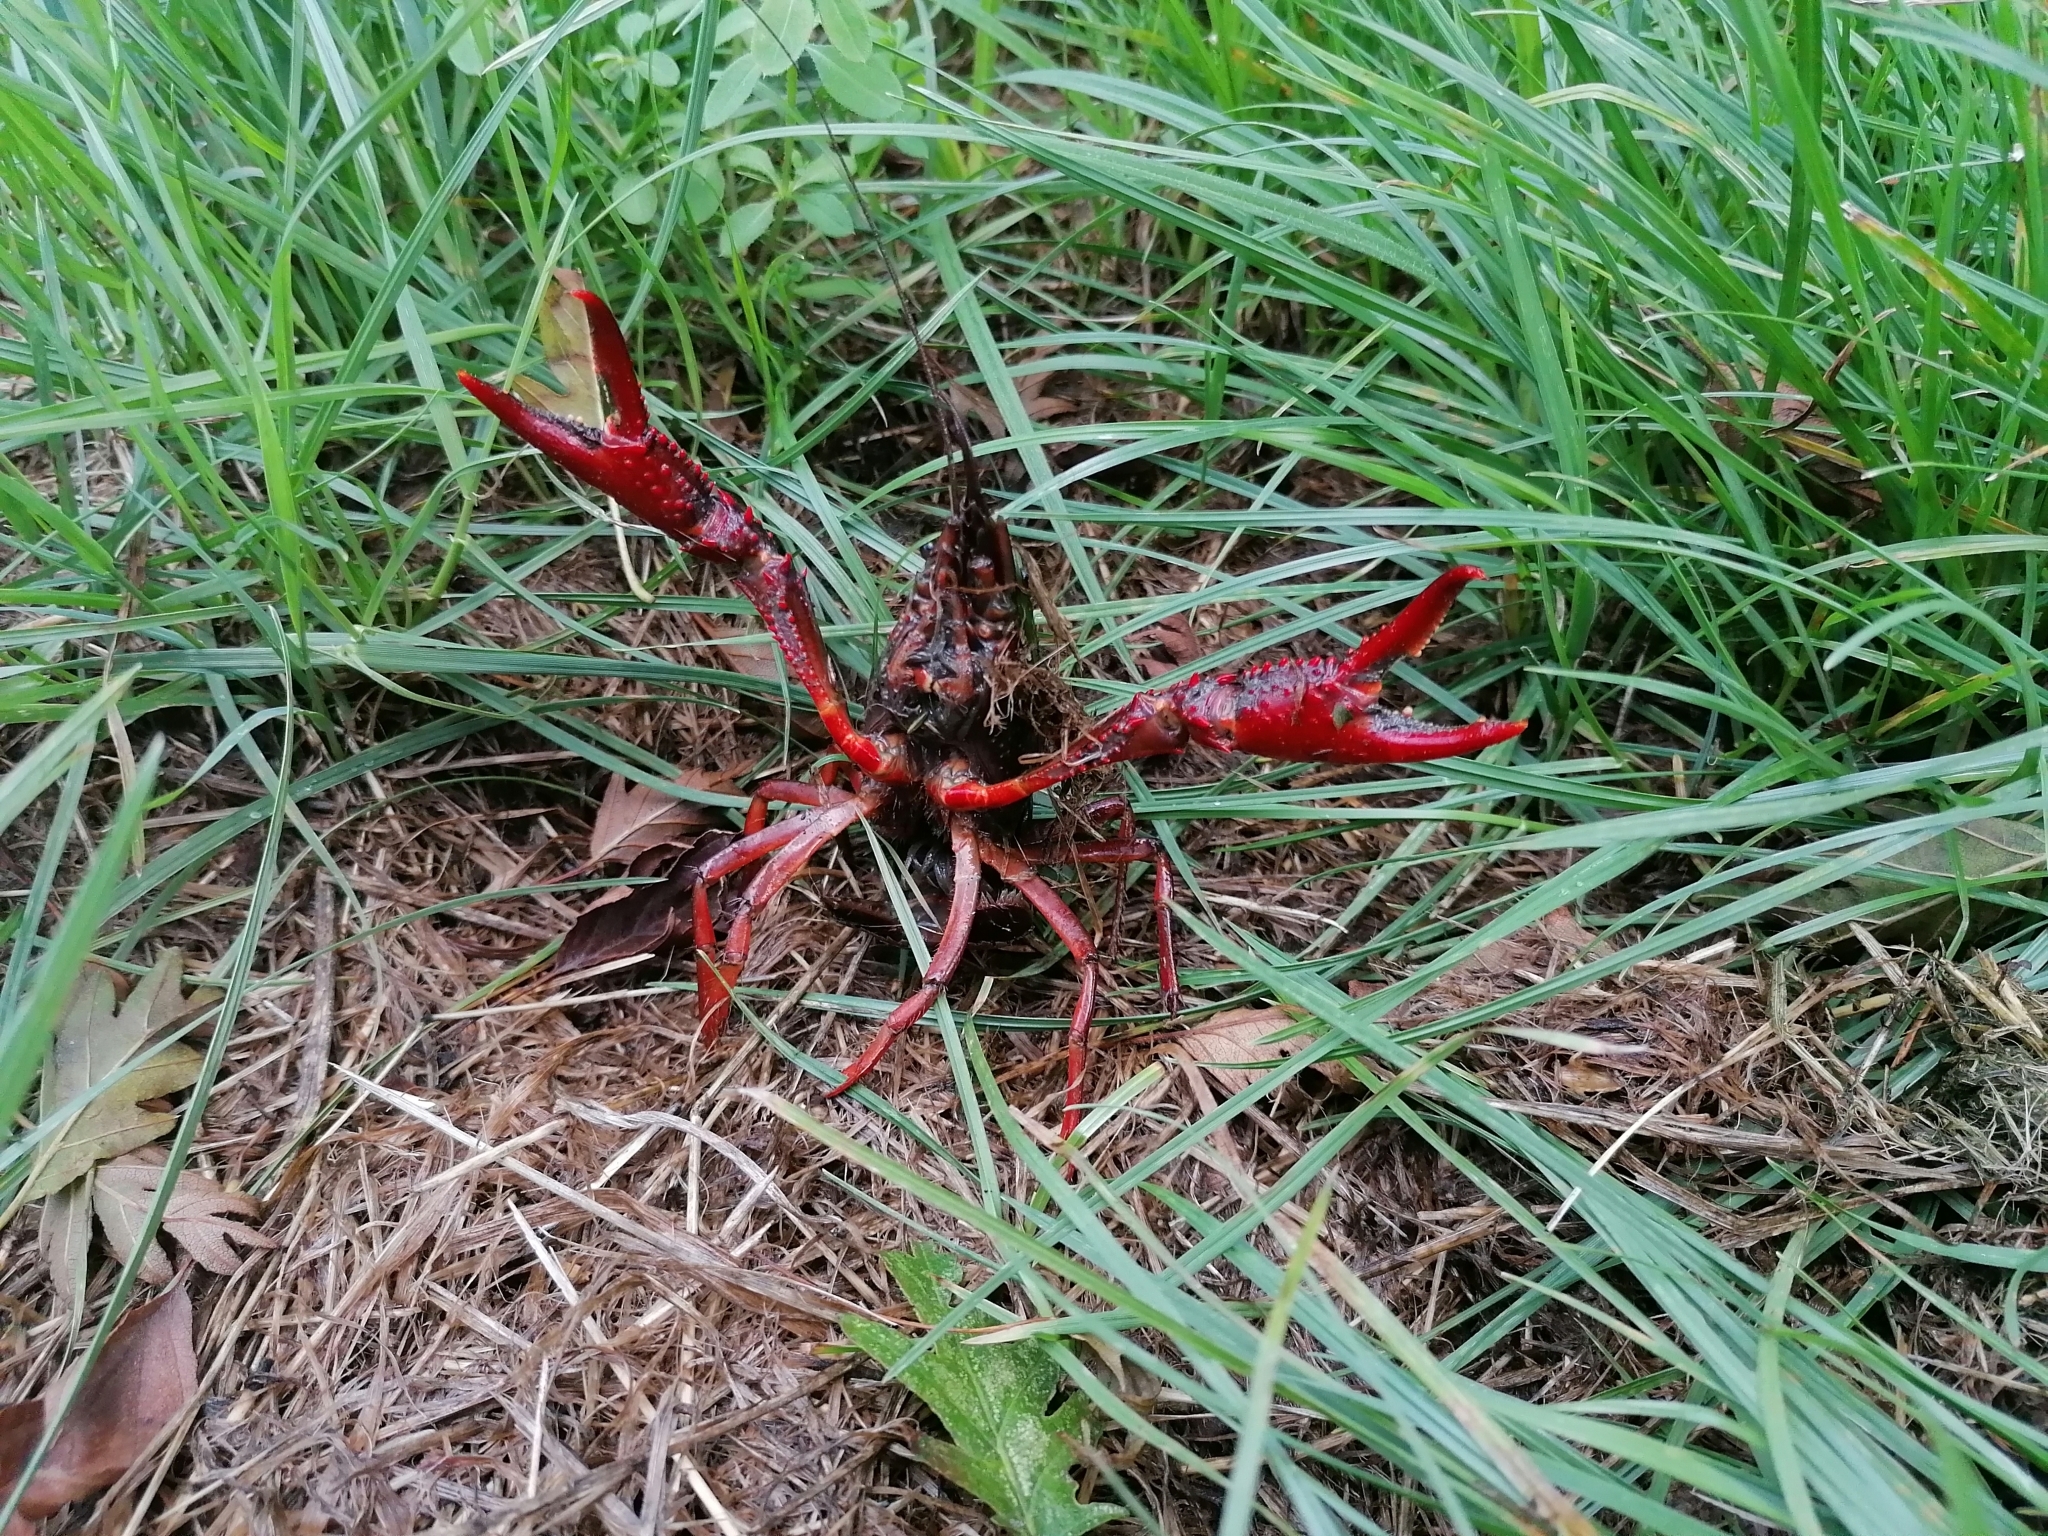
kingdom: Animalia
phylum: Arthropoda
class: Malacostraca
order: Decapoda
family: Cambaridae
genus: Procambarus
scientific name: Procambarus clarkii
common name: Red swamp crayfish
